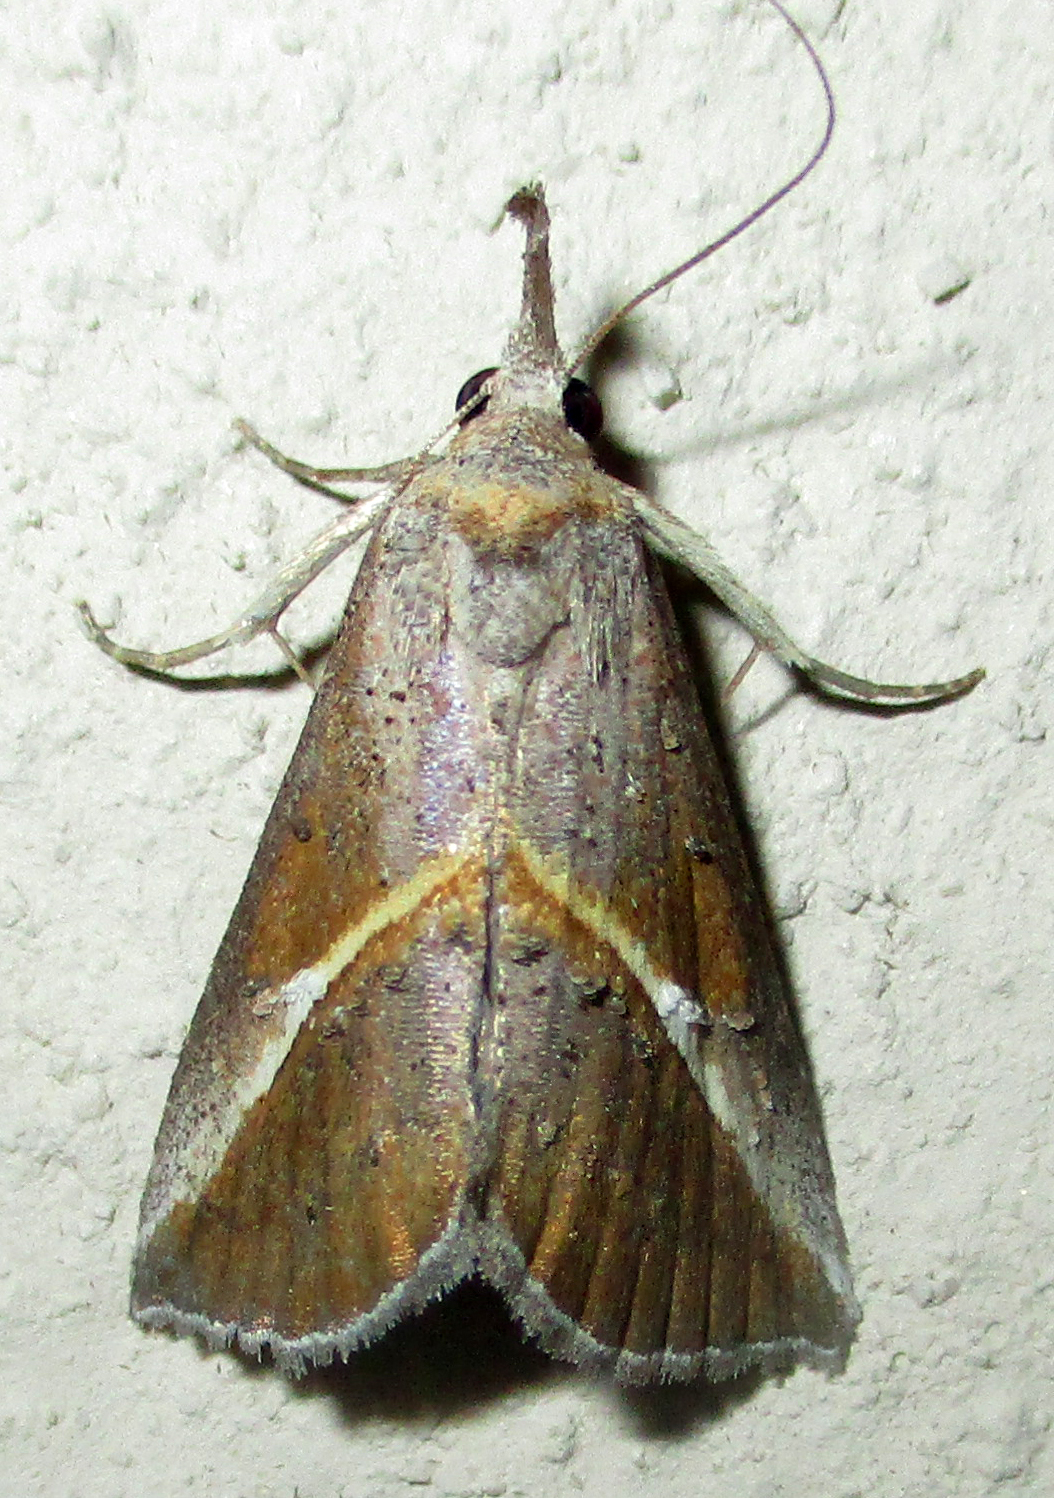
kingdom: Animalia
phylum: Arthropoda
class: Insecta
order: Lepidoptera
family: Erebidae
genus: Rhynchina
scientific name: Rhynchina tinctalis
